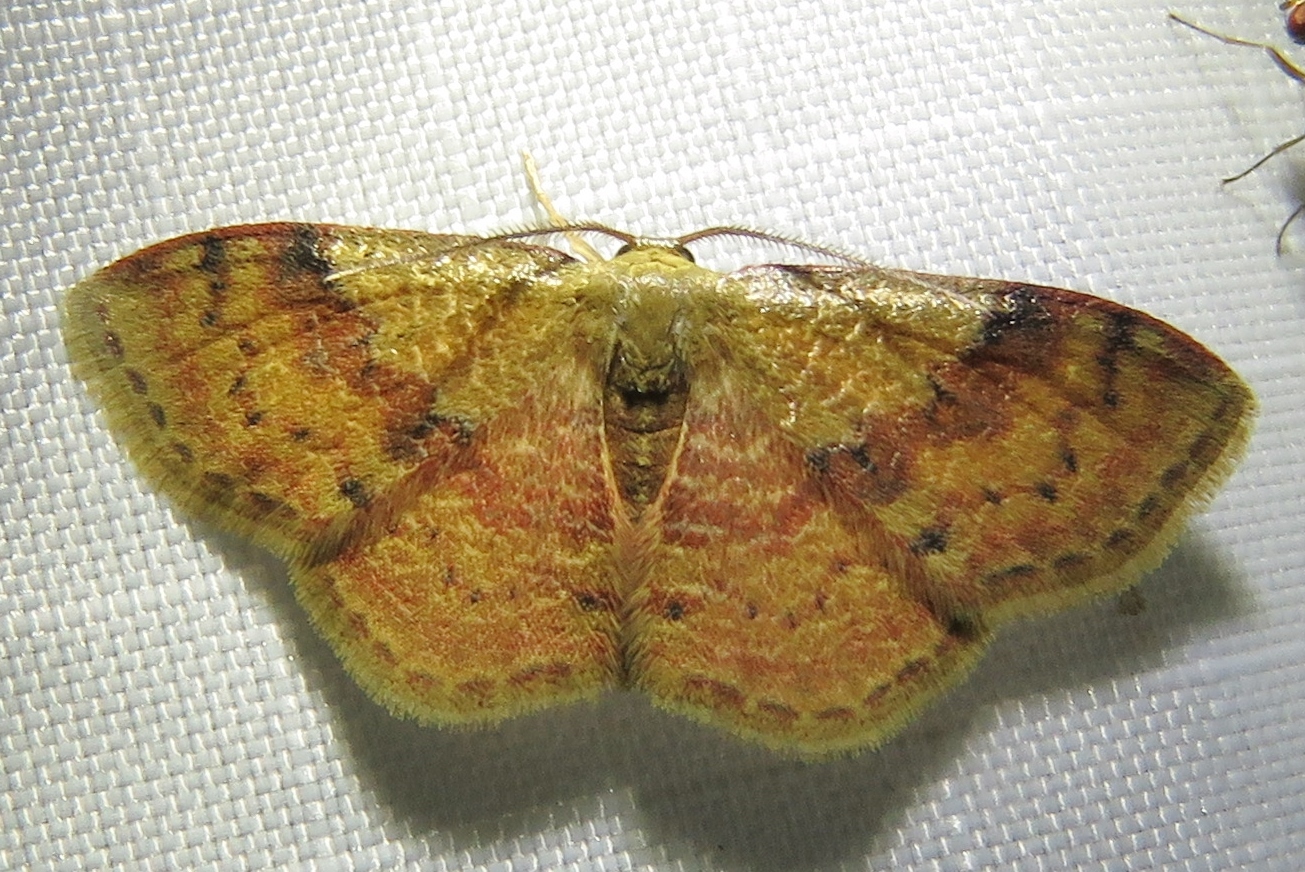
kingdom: Animalia
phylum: Arthropoda
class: Insecta
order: Lepidoptera
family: Geometridae
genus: Leptostales
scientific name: Leptostales ferruminaria
